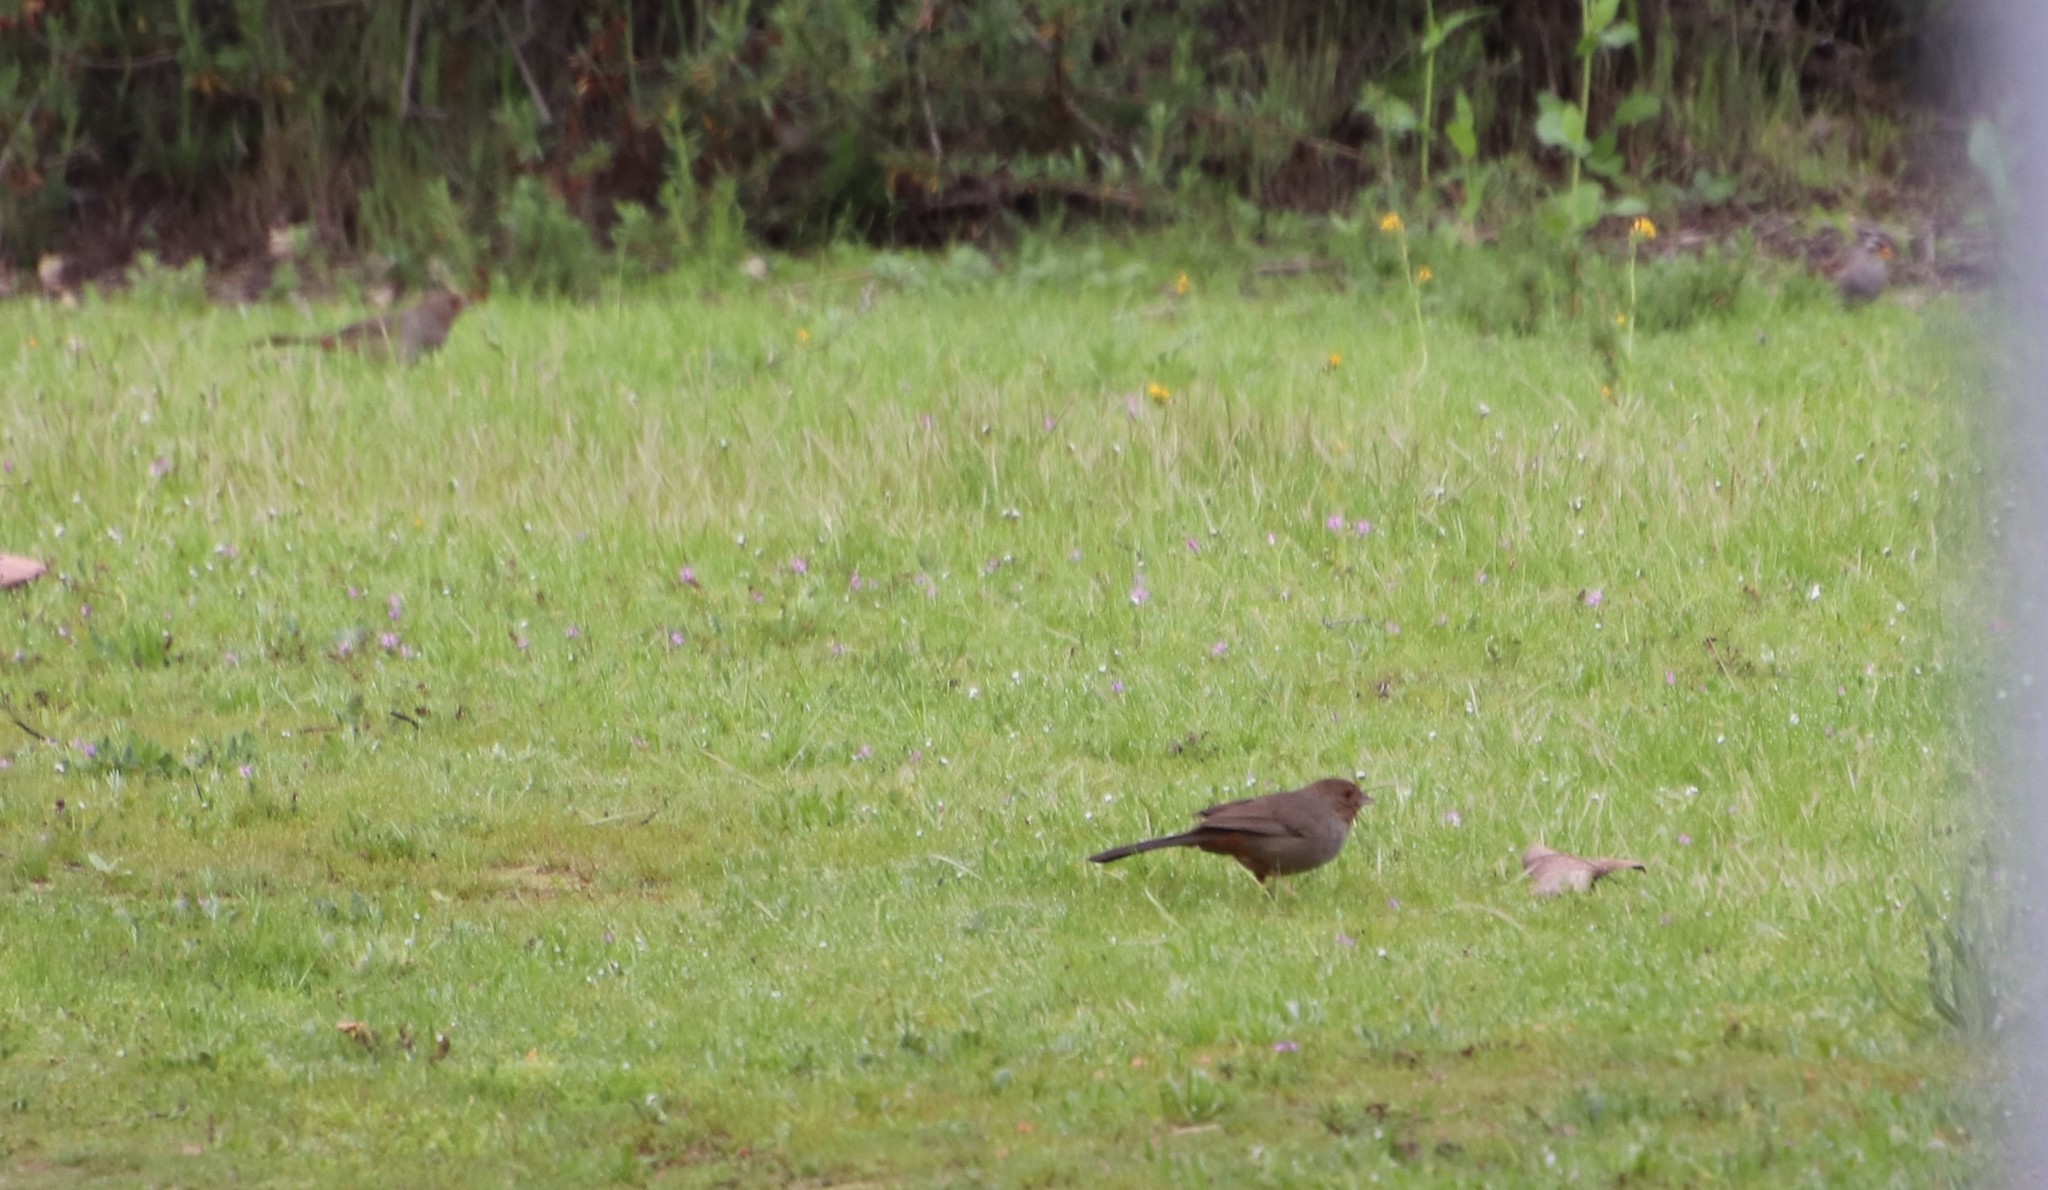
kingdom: Animalia
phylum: Chordata
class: Aves
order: Passeriformes
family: Passerellidae
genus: Melozone
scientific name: Melozone crissalis
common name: California towhee
